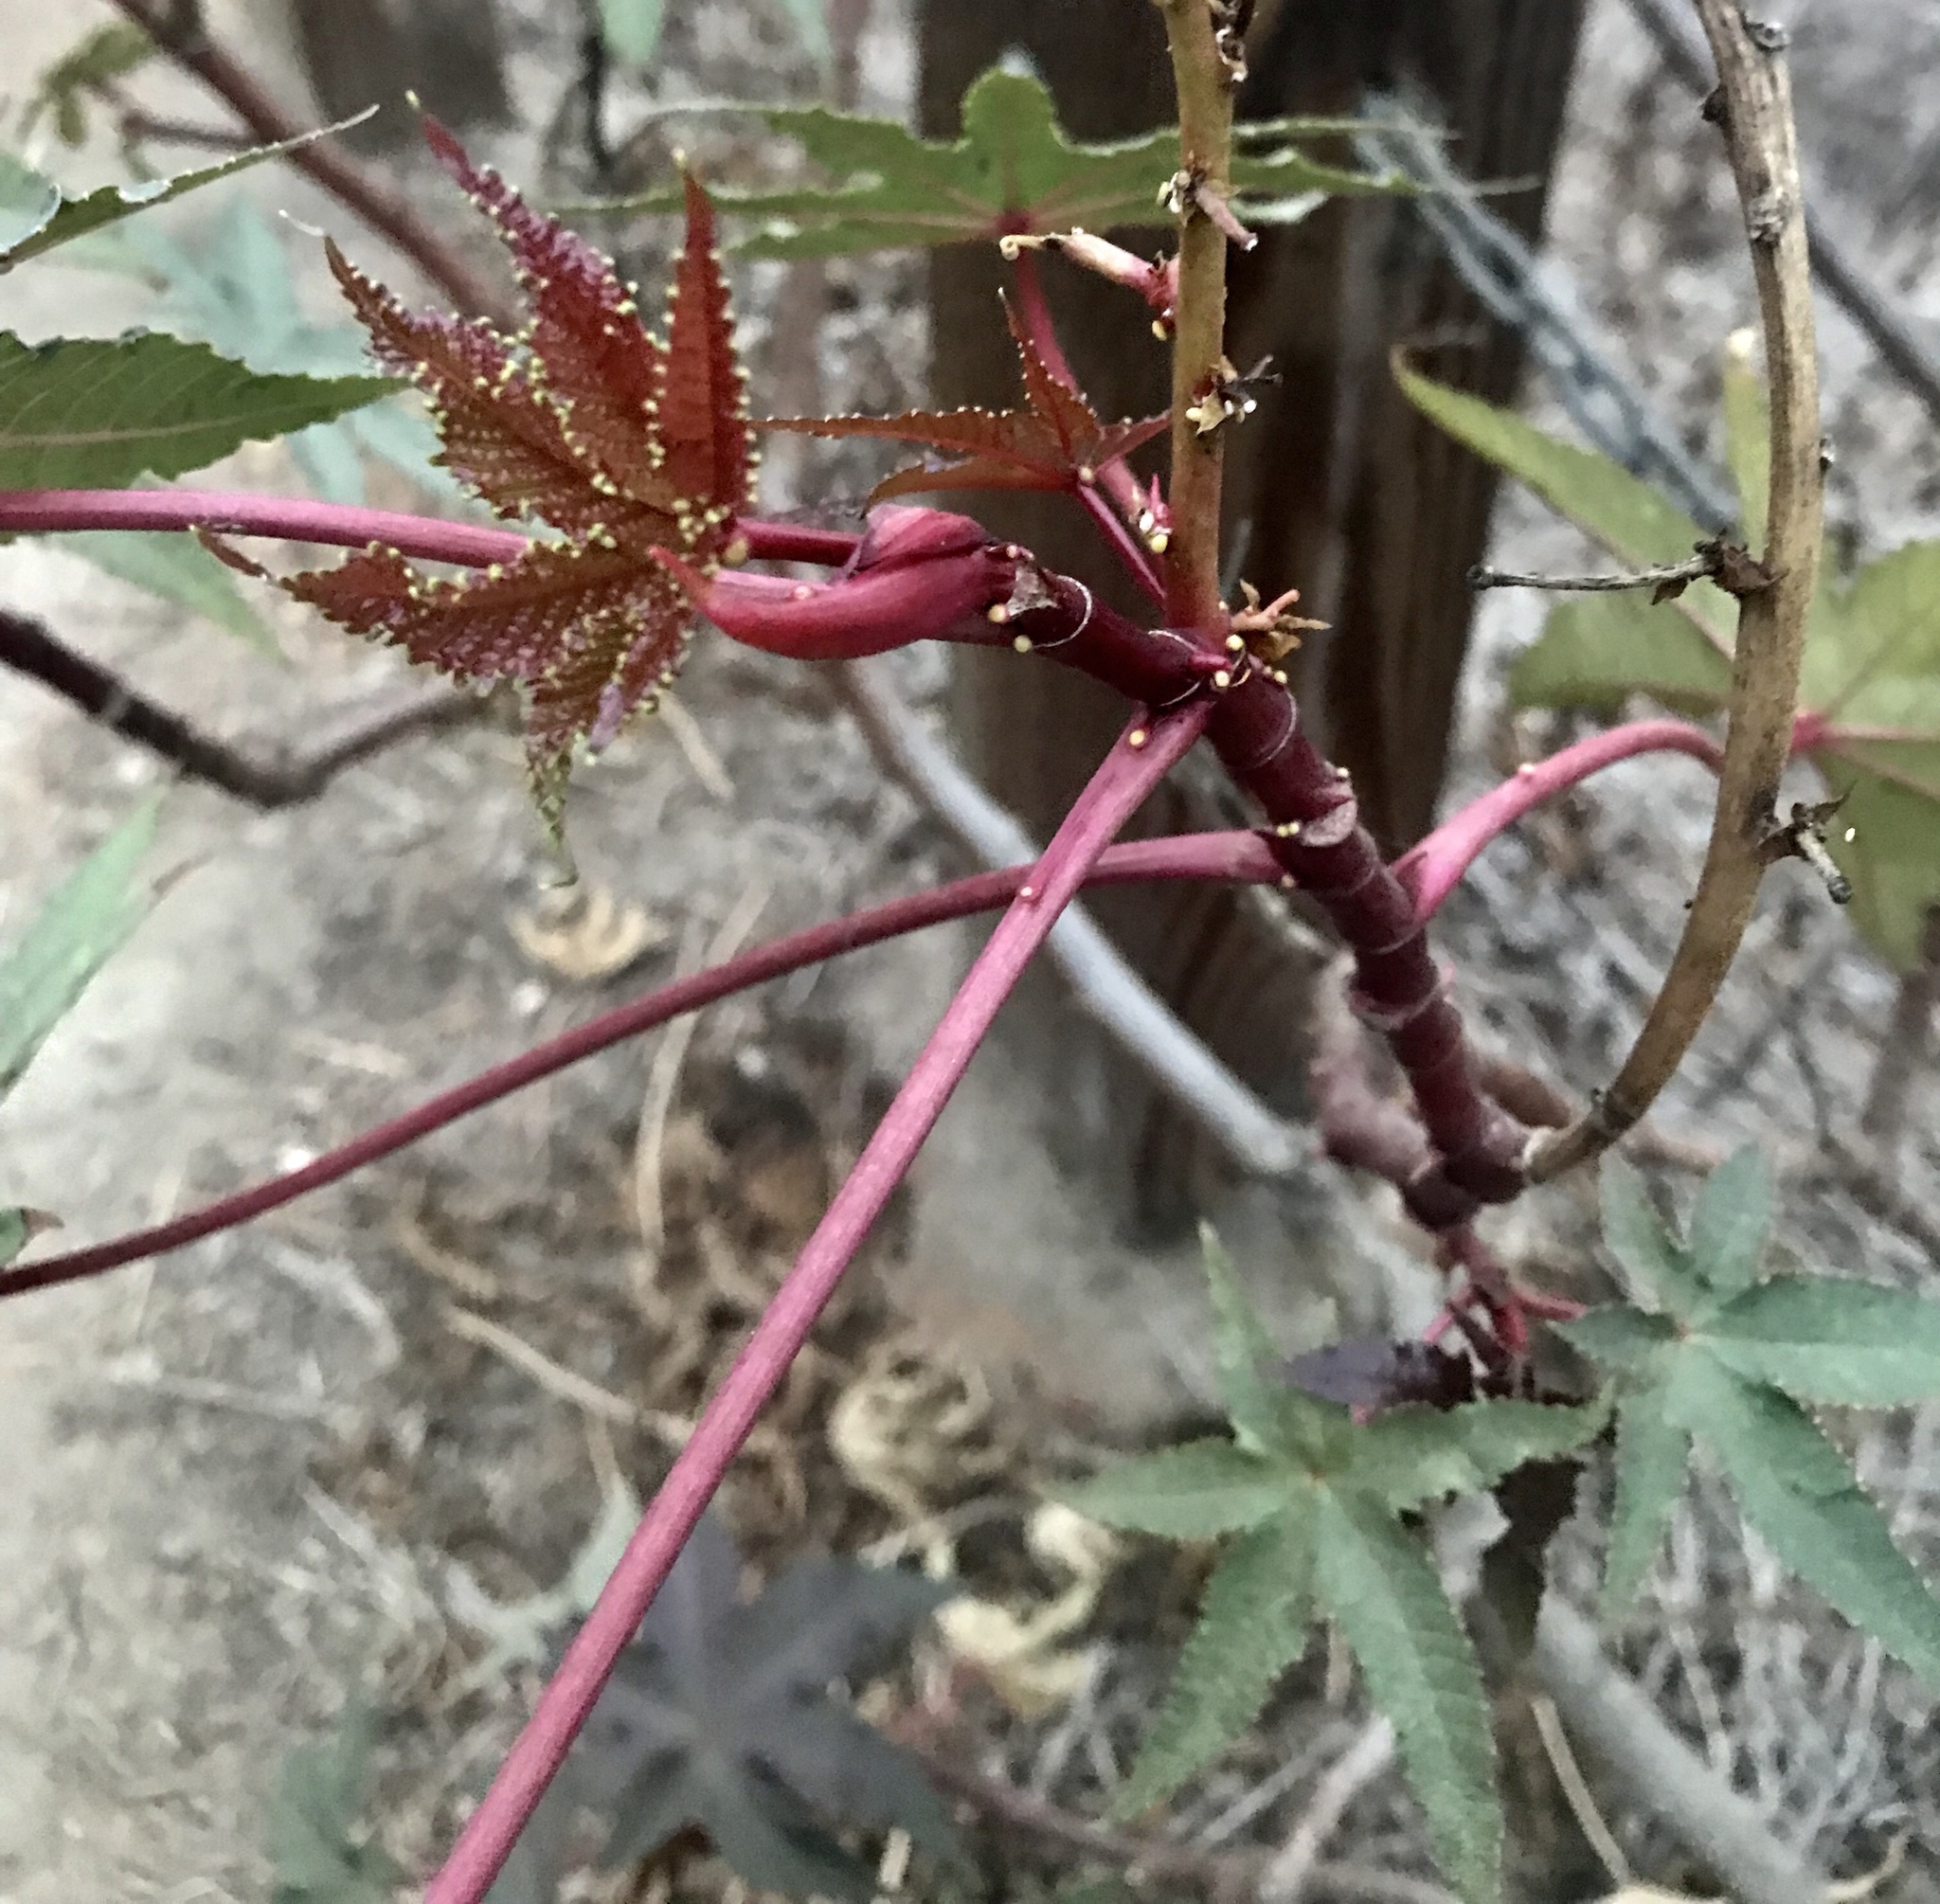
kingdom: Plantae
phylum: Tracheophyta
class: Magnoliopsida
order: Malpighiales
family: Euphorbiaceae
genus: Ricinus
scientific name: Ricinus communis
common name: Castor-oil-plant
